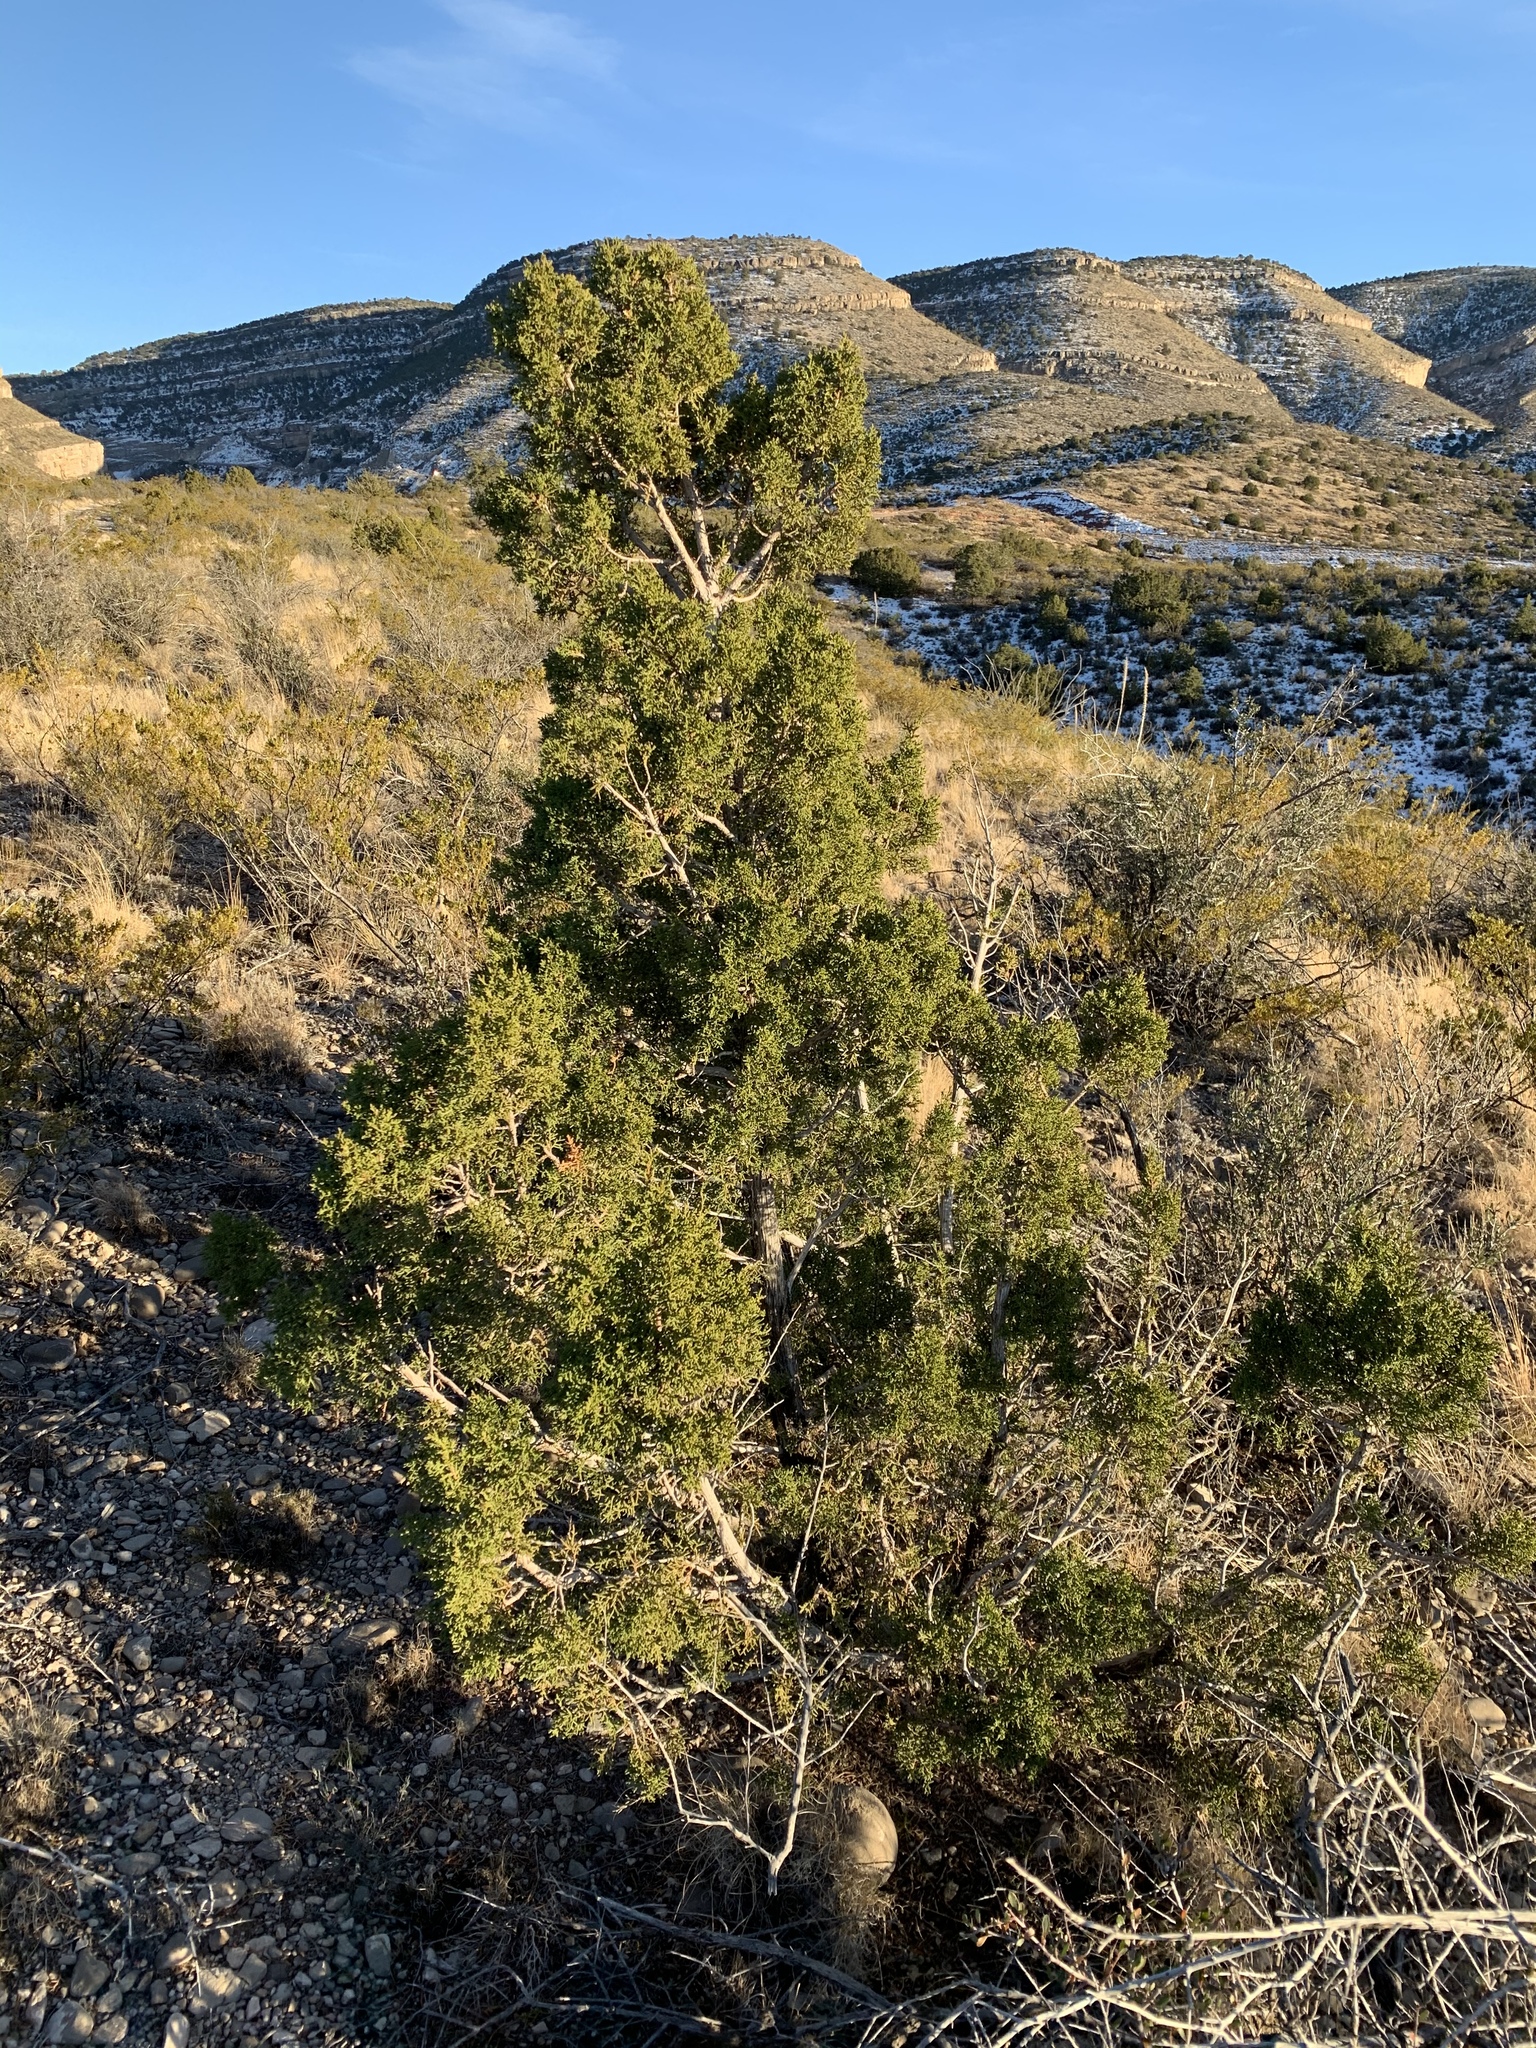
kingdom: Plantae
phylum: Tracheophyta
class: Pinopsida
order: Pinales
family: Cupressaceae
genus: Juniperus
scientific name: Juniperus monosperma
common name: One-seed juniper
